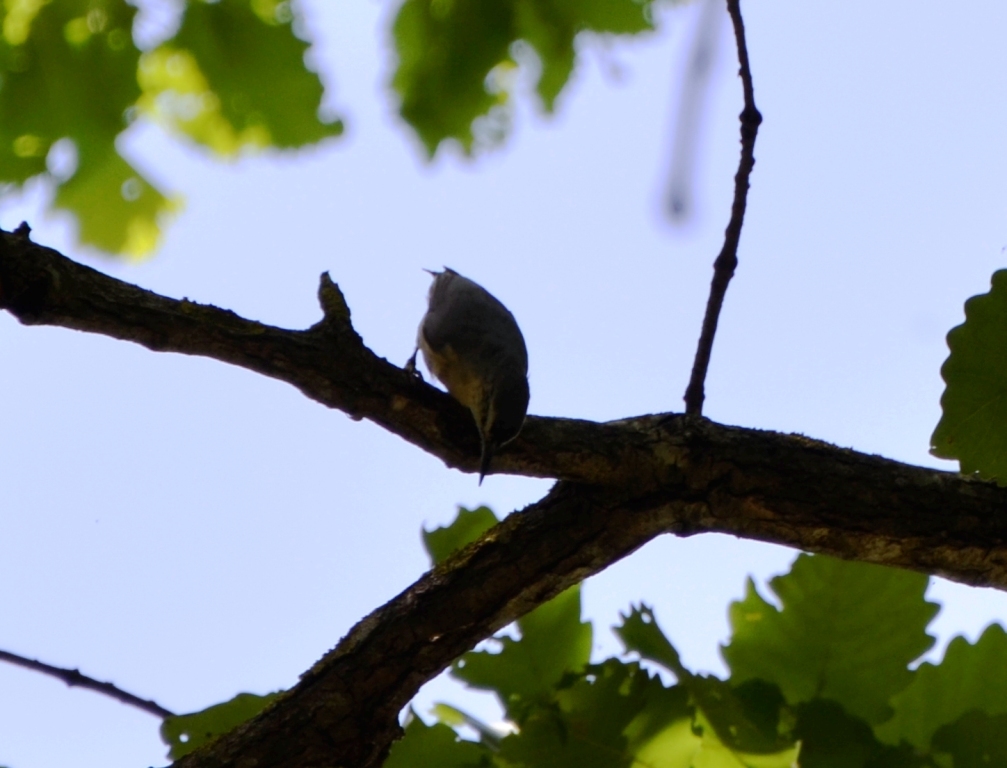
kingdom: Animalia
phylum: Chordata
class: Aves
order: Passeriformes
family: Sittidae
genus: Sitta
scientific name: Sitta ledanti
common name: Algerian nuthatch
